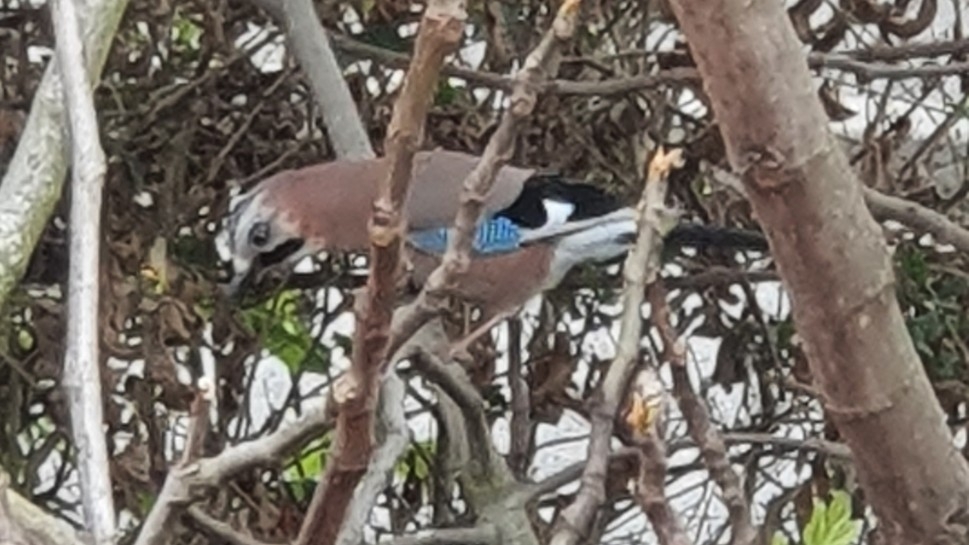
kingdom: Animalia
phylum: Chordata
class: Aves
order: Passeriformes
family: Corvidae
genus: Garrulus
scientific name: Garrulus glandarius
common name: Eurasian jay
